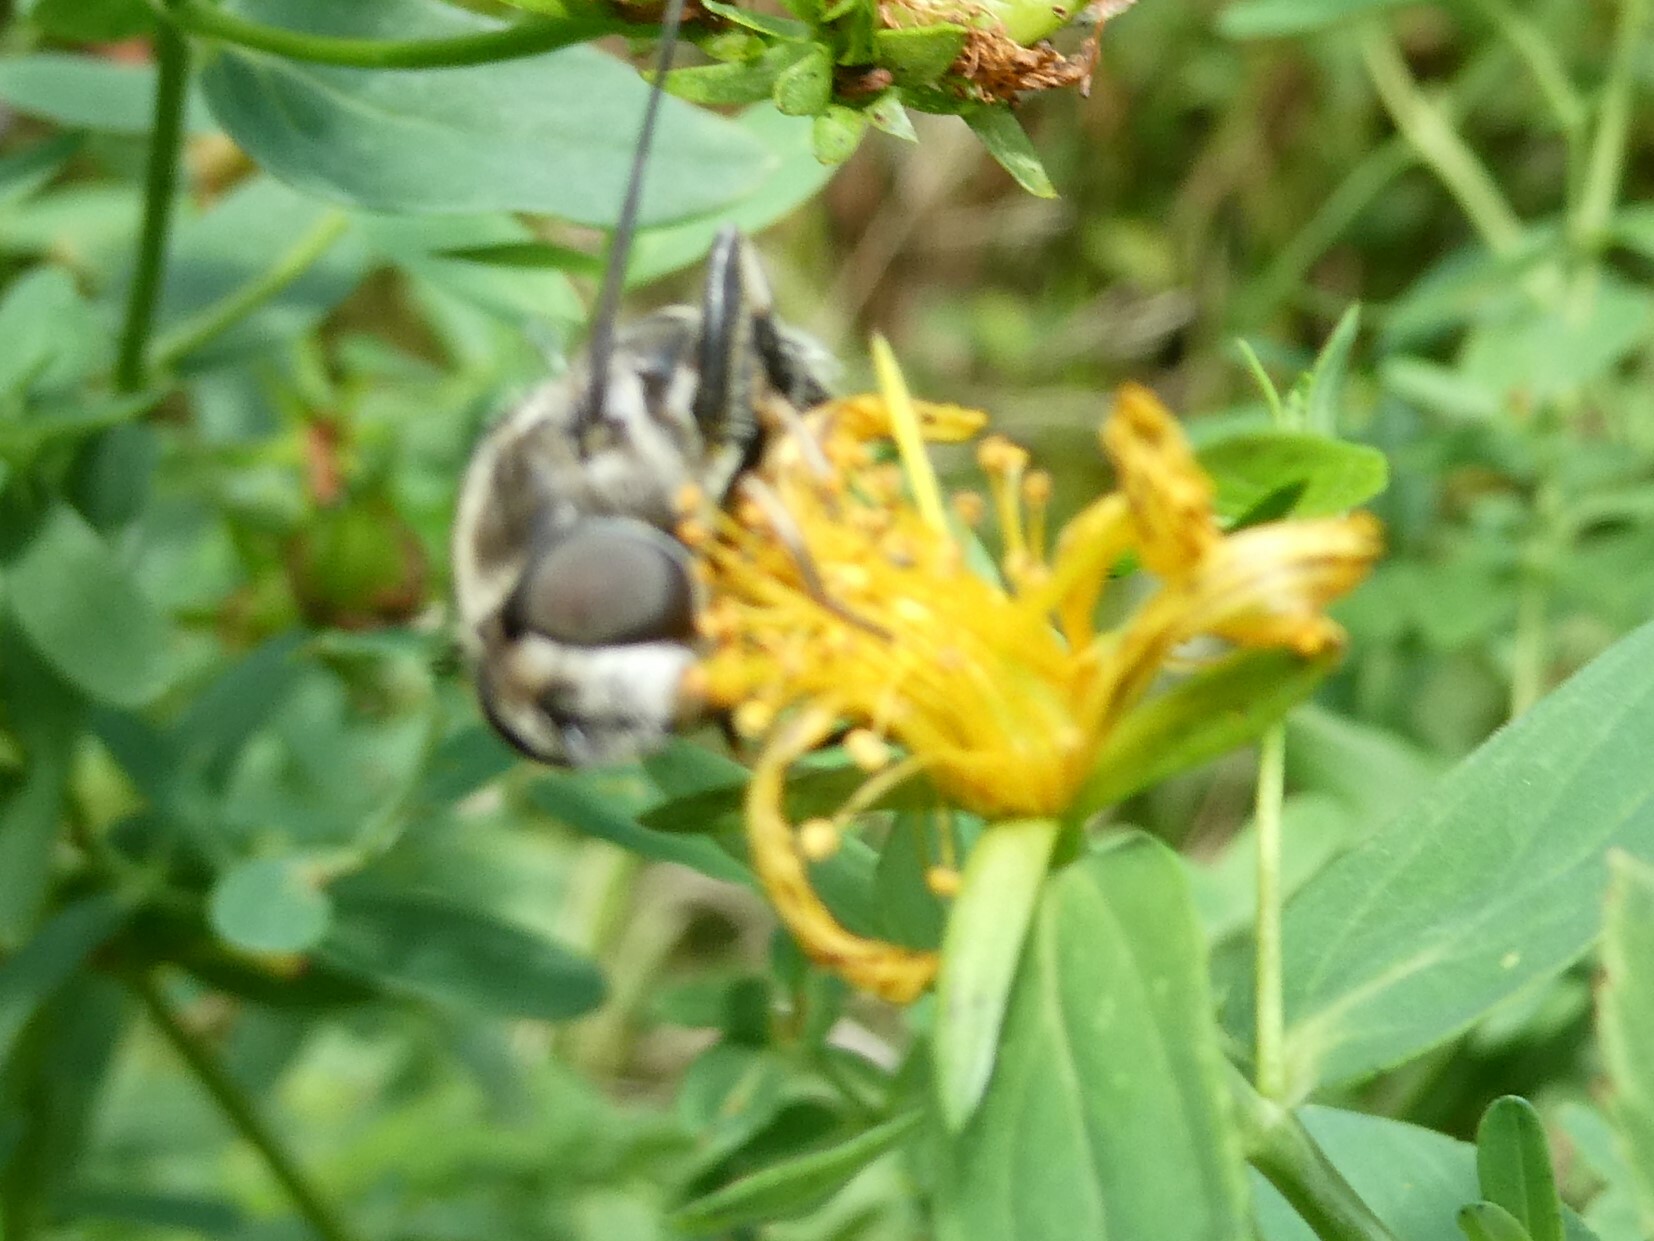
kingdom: Animalia
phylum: Arthropoda
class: Insecta
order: Diptera
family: Syrphidae
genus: Eristalis
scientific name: Eristalis dimidiata
